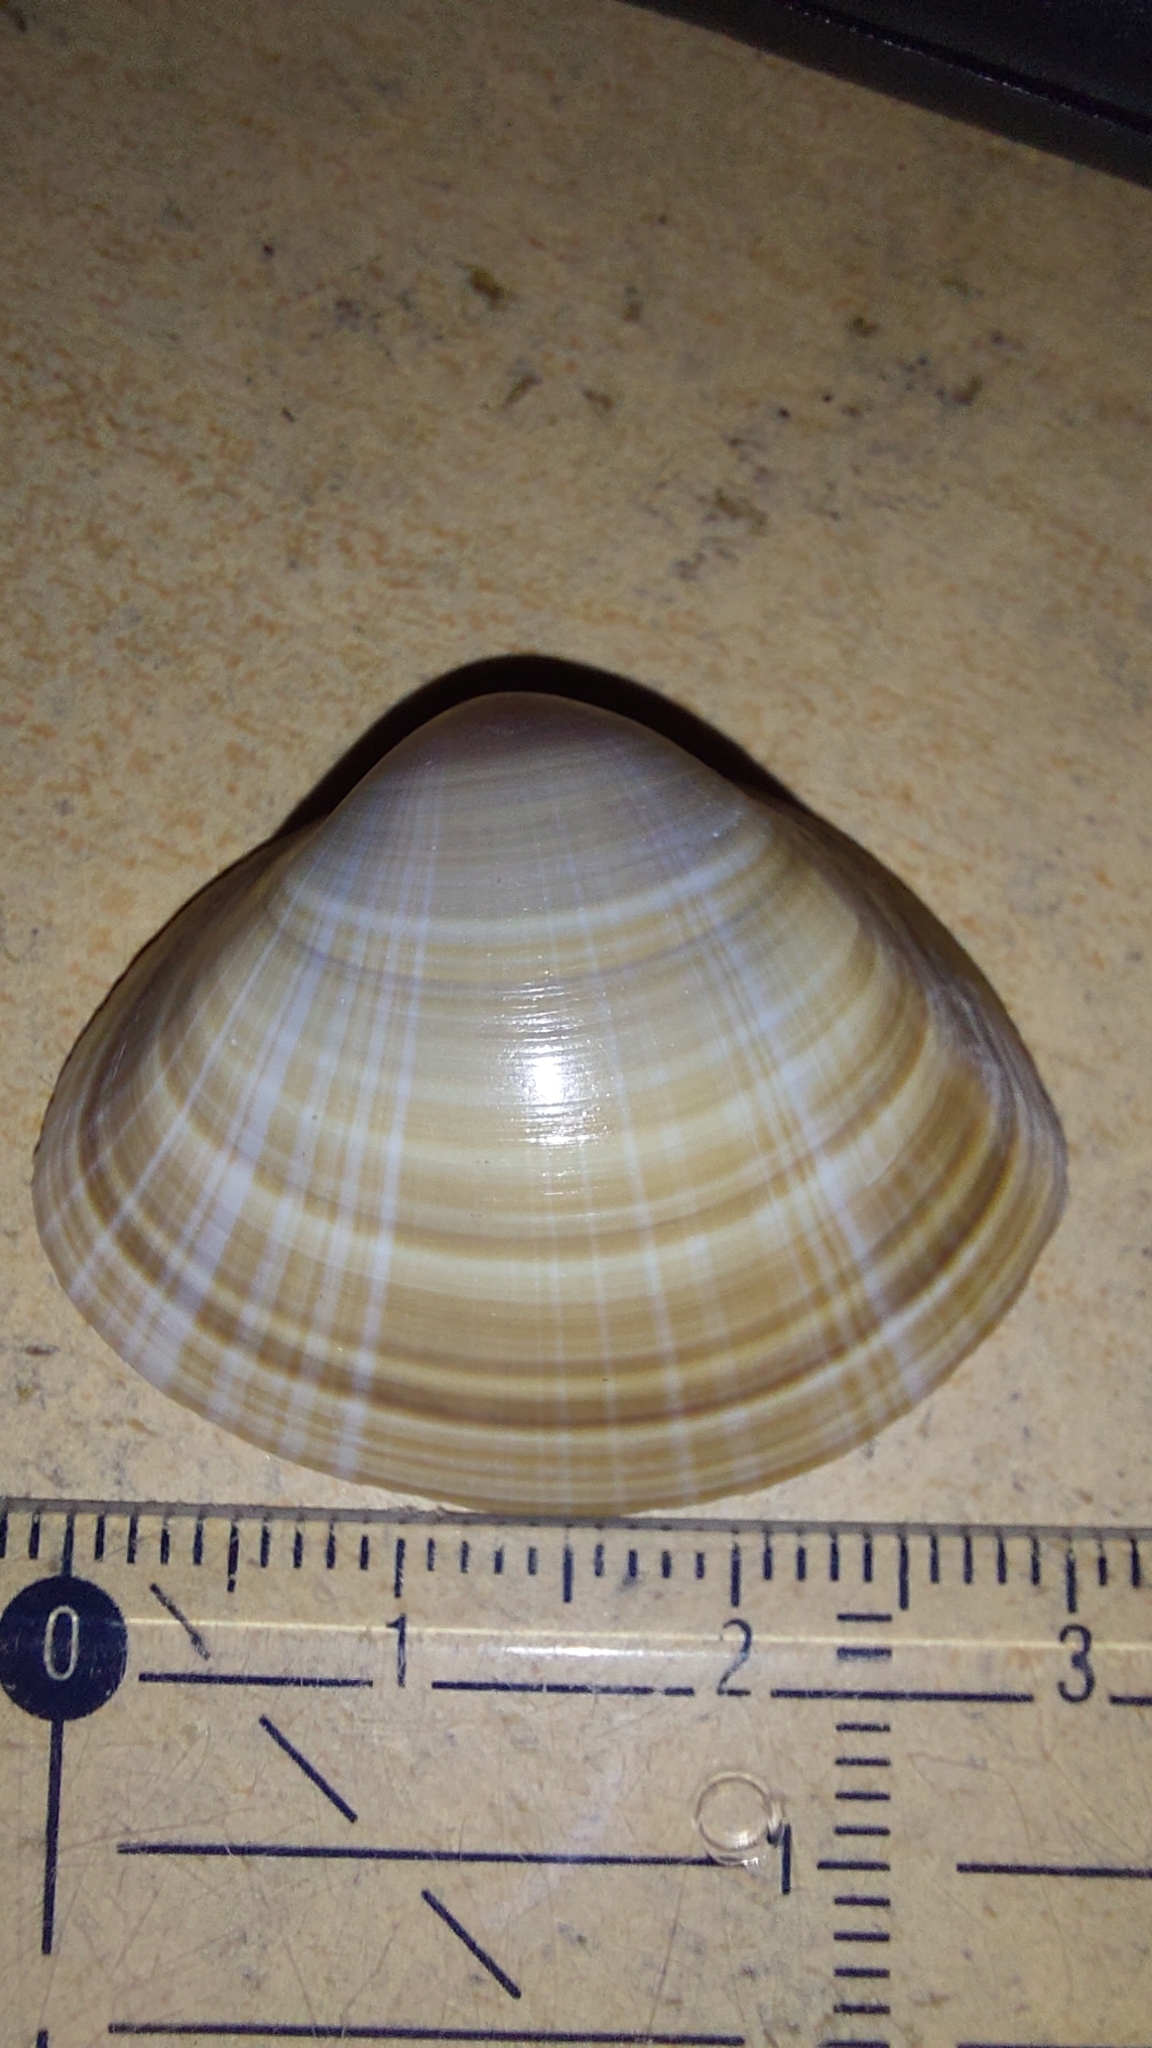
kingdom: Animalia
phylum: Mollusca
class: Bivalvia
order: Venerida
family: Mactridae
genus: Mactra
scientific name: Mactra stultorum
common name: Rayed trough shell
